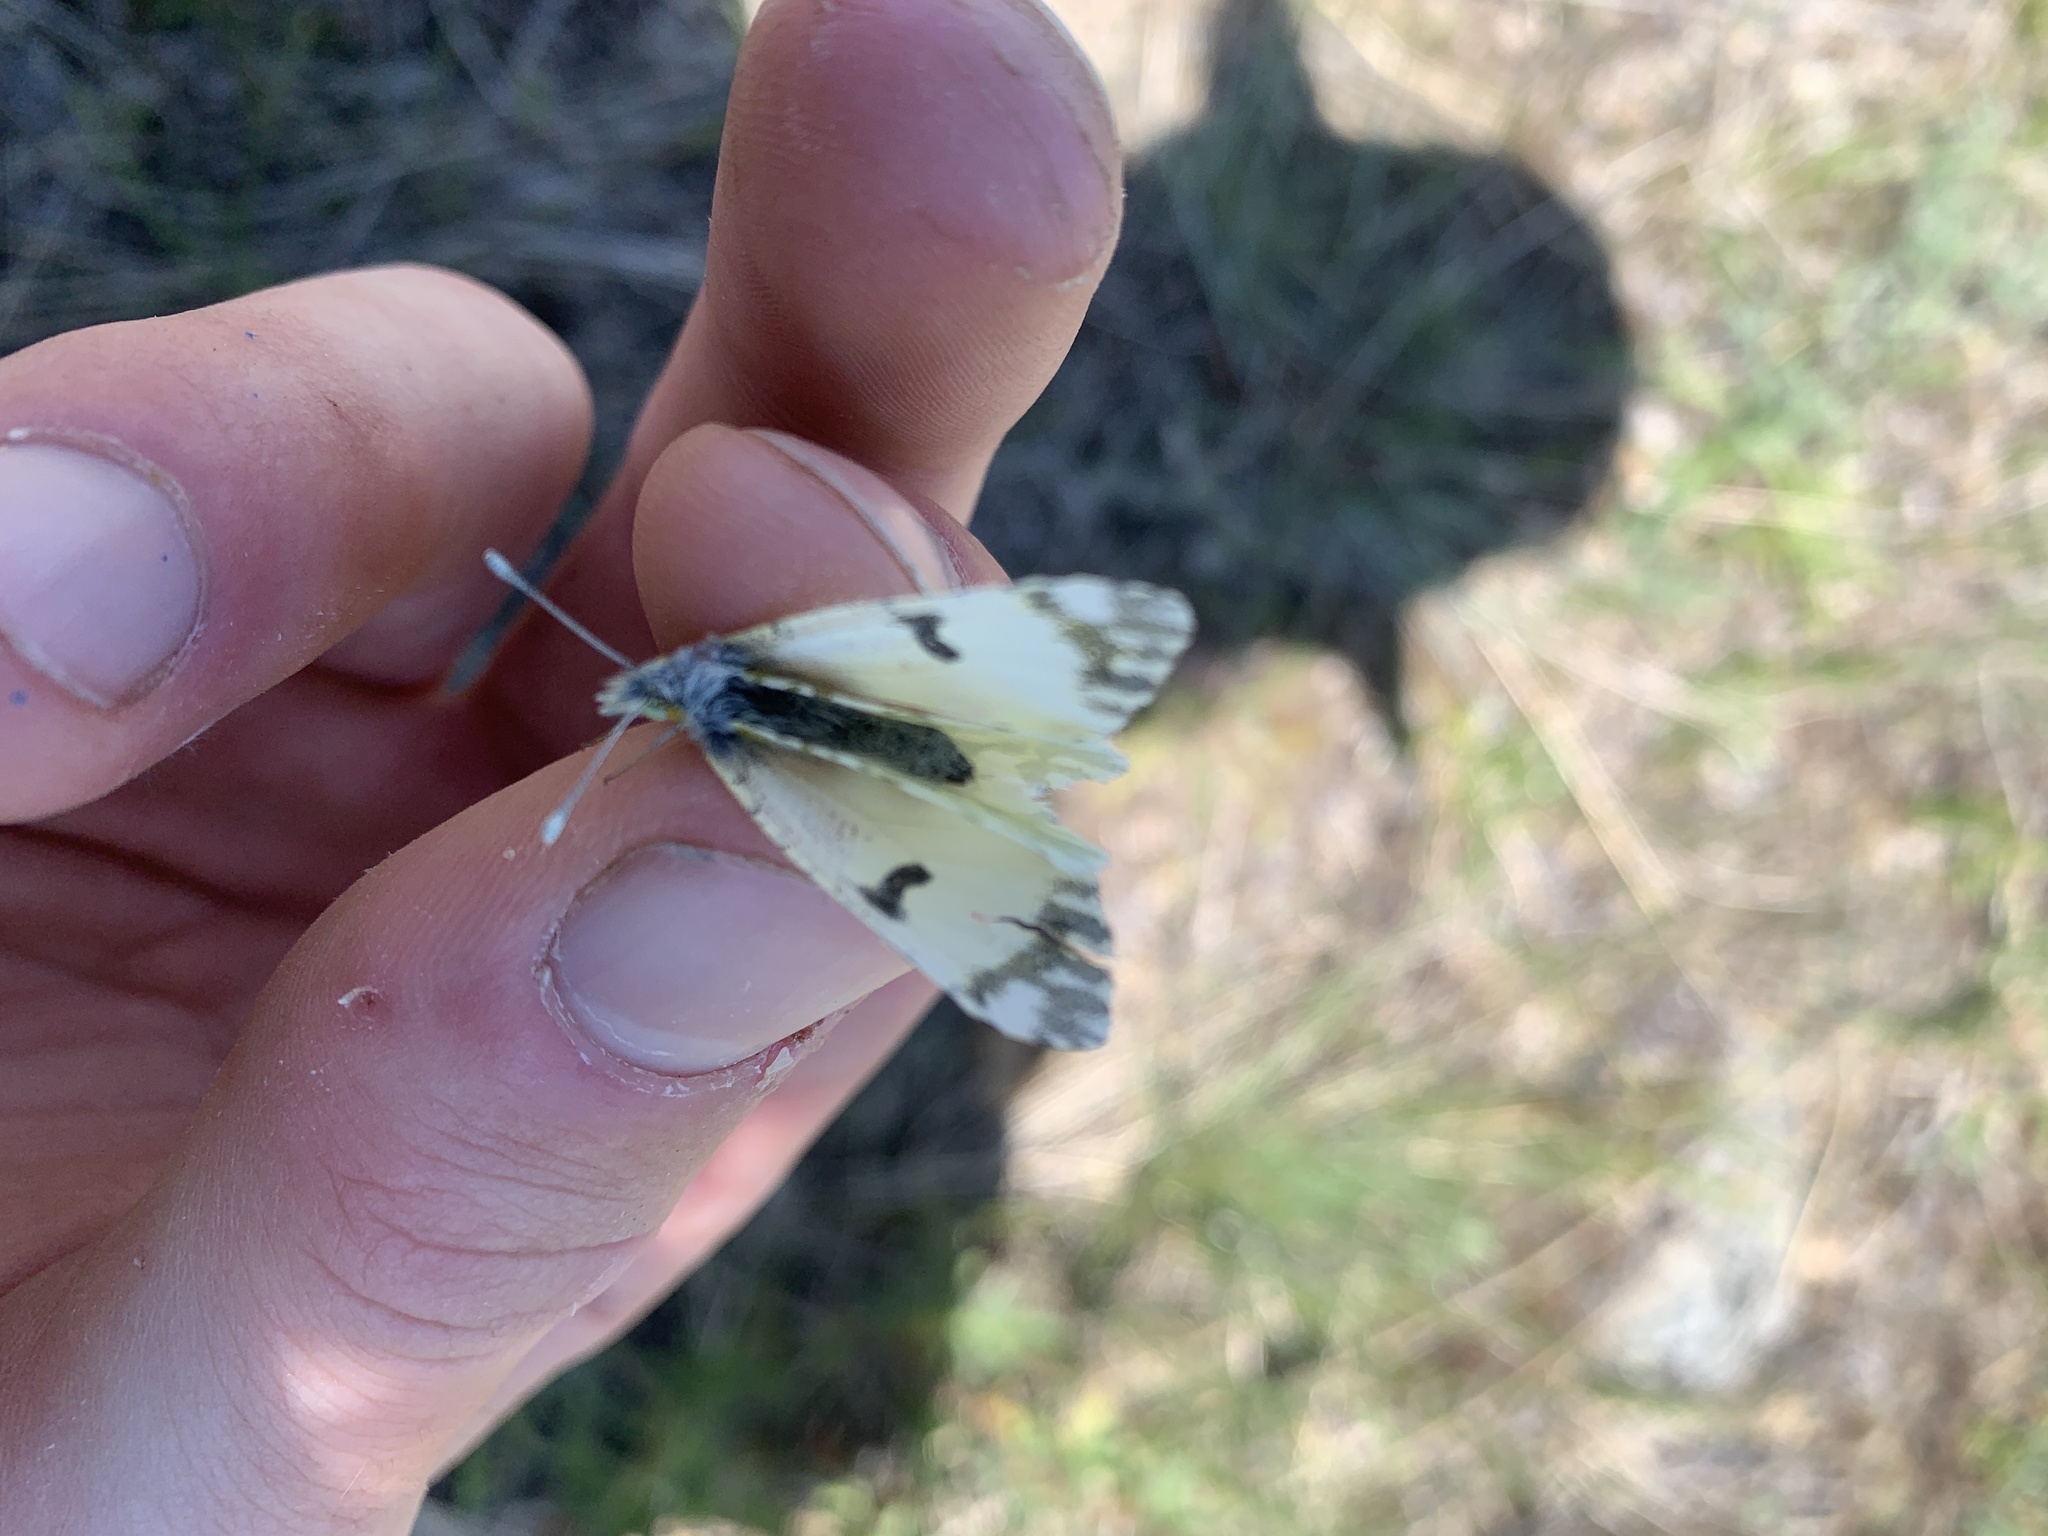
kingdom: Animalia
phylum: Arthropoda
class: Insecta
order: Lepidoptera
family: Pieridae
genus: Euchloe
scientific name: Euchloe ausonides
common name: Creamy marblewing
